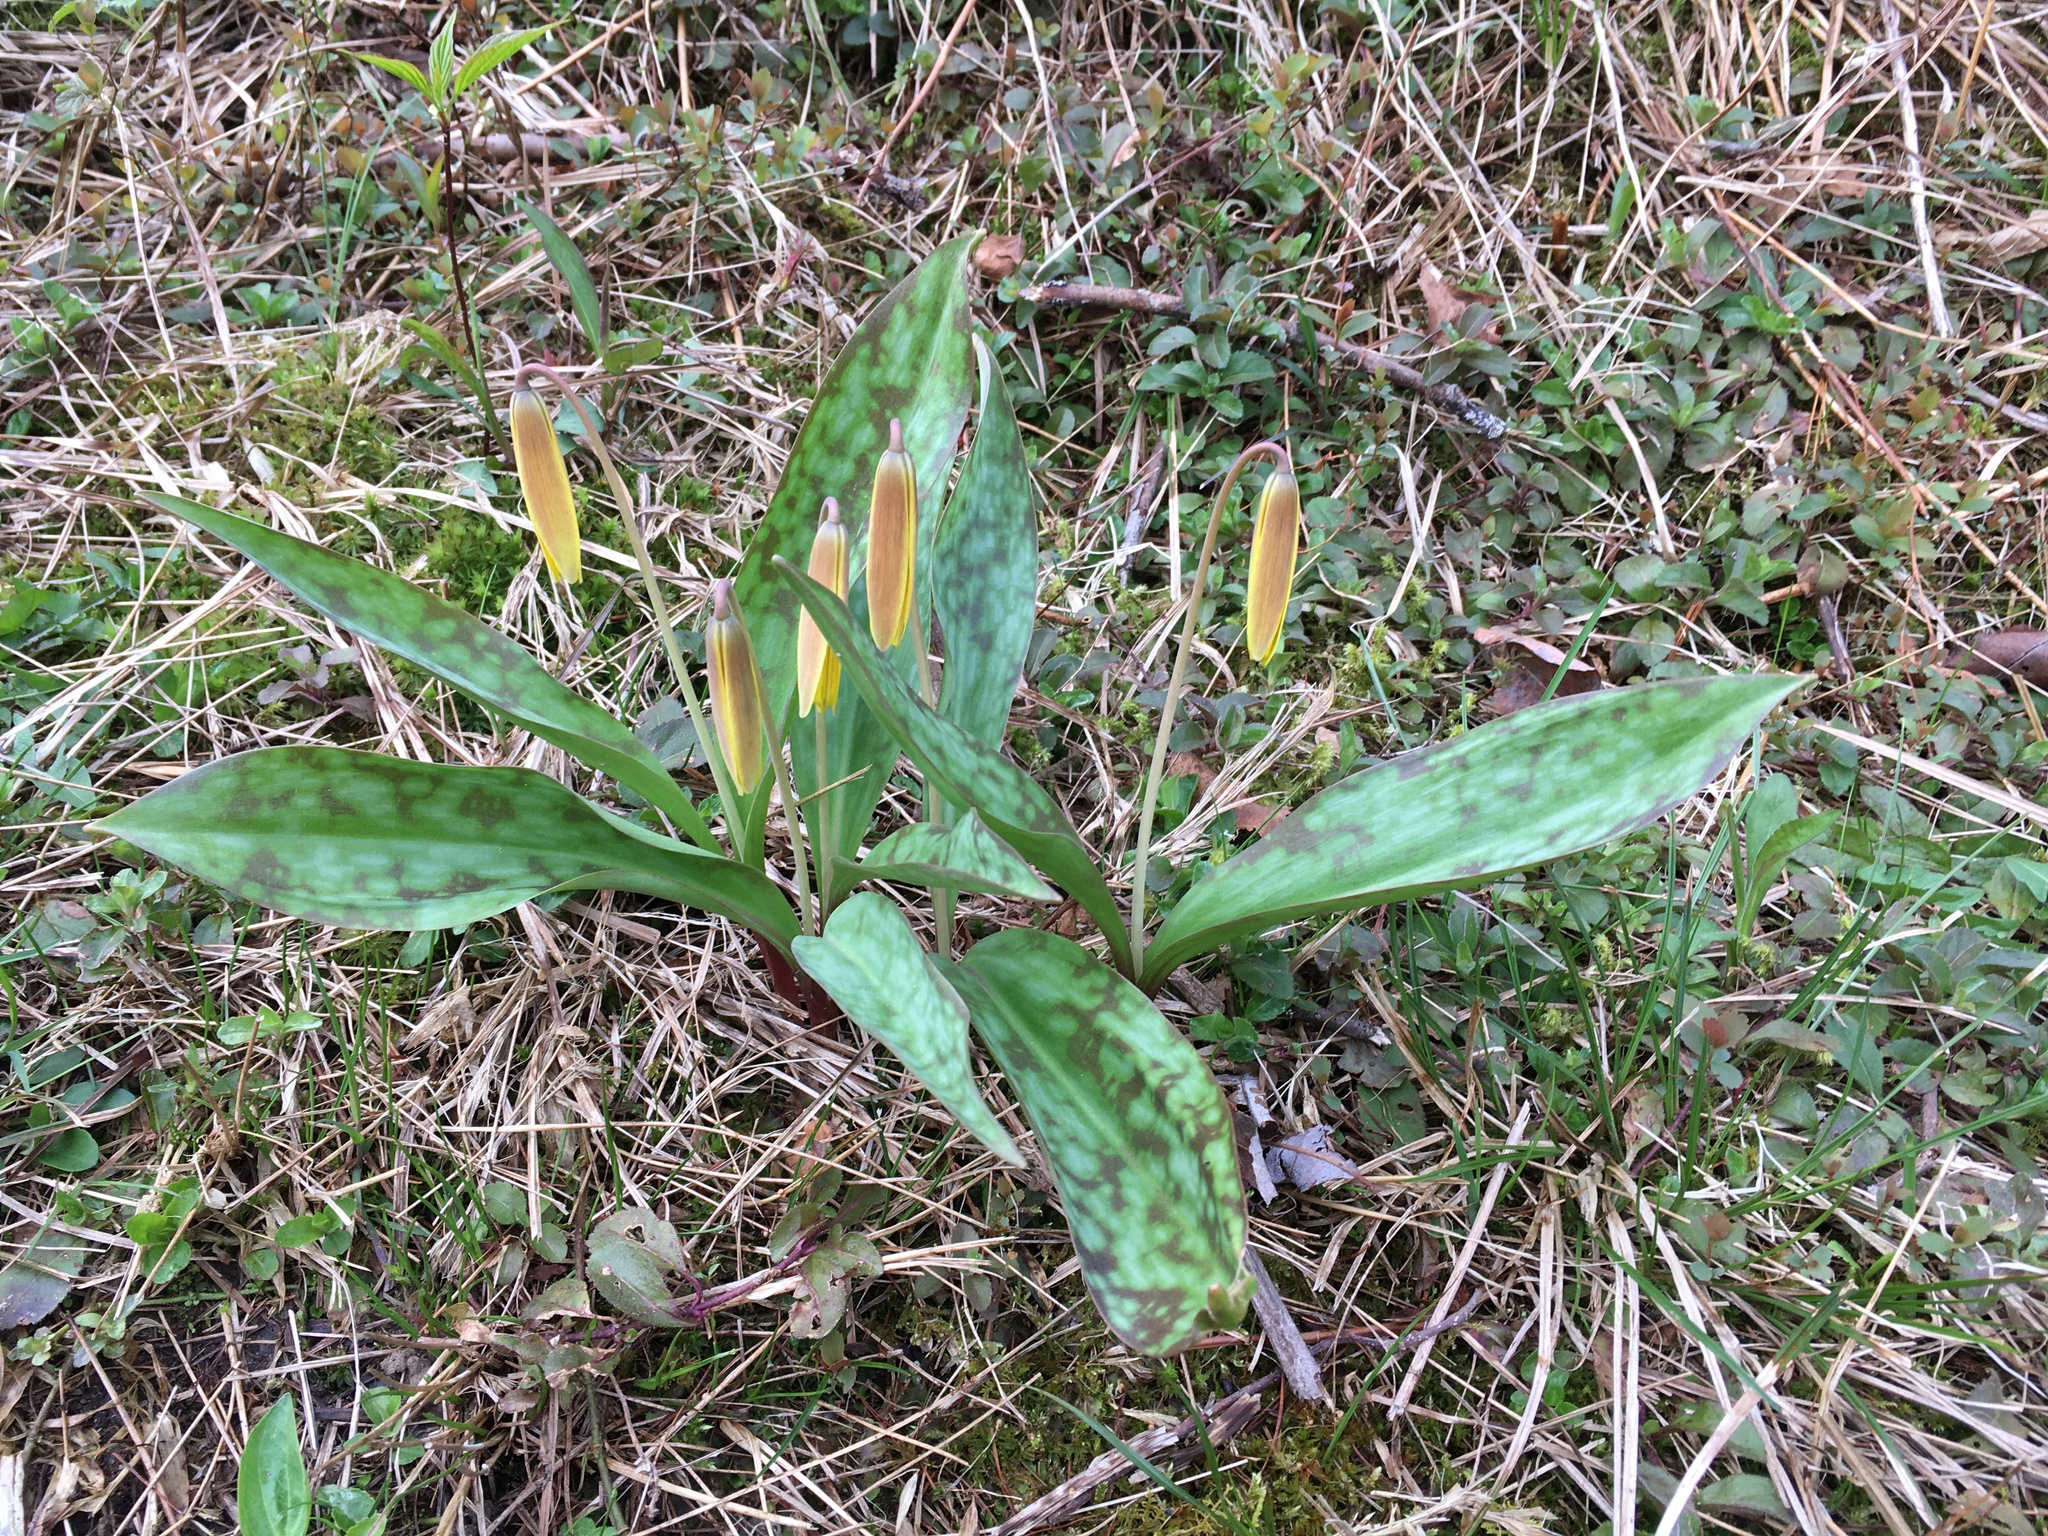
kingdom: Plantae
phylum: Tracheophyta
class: Liliopsida
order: Liliales
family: Liliaceae
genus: Erythronium
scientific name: Erythronium americanum
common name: Yellow adder's-tongue
